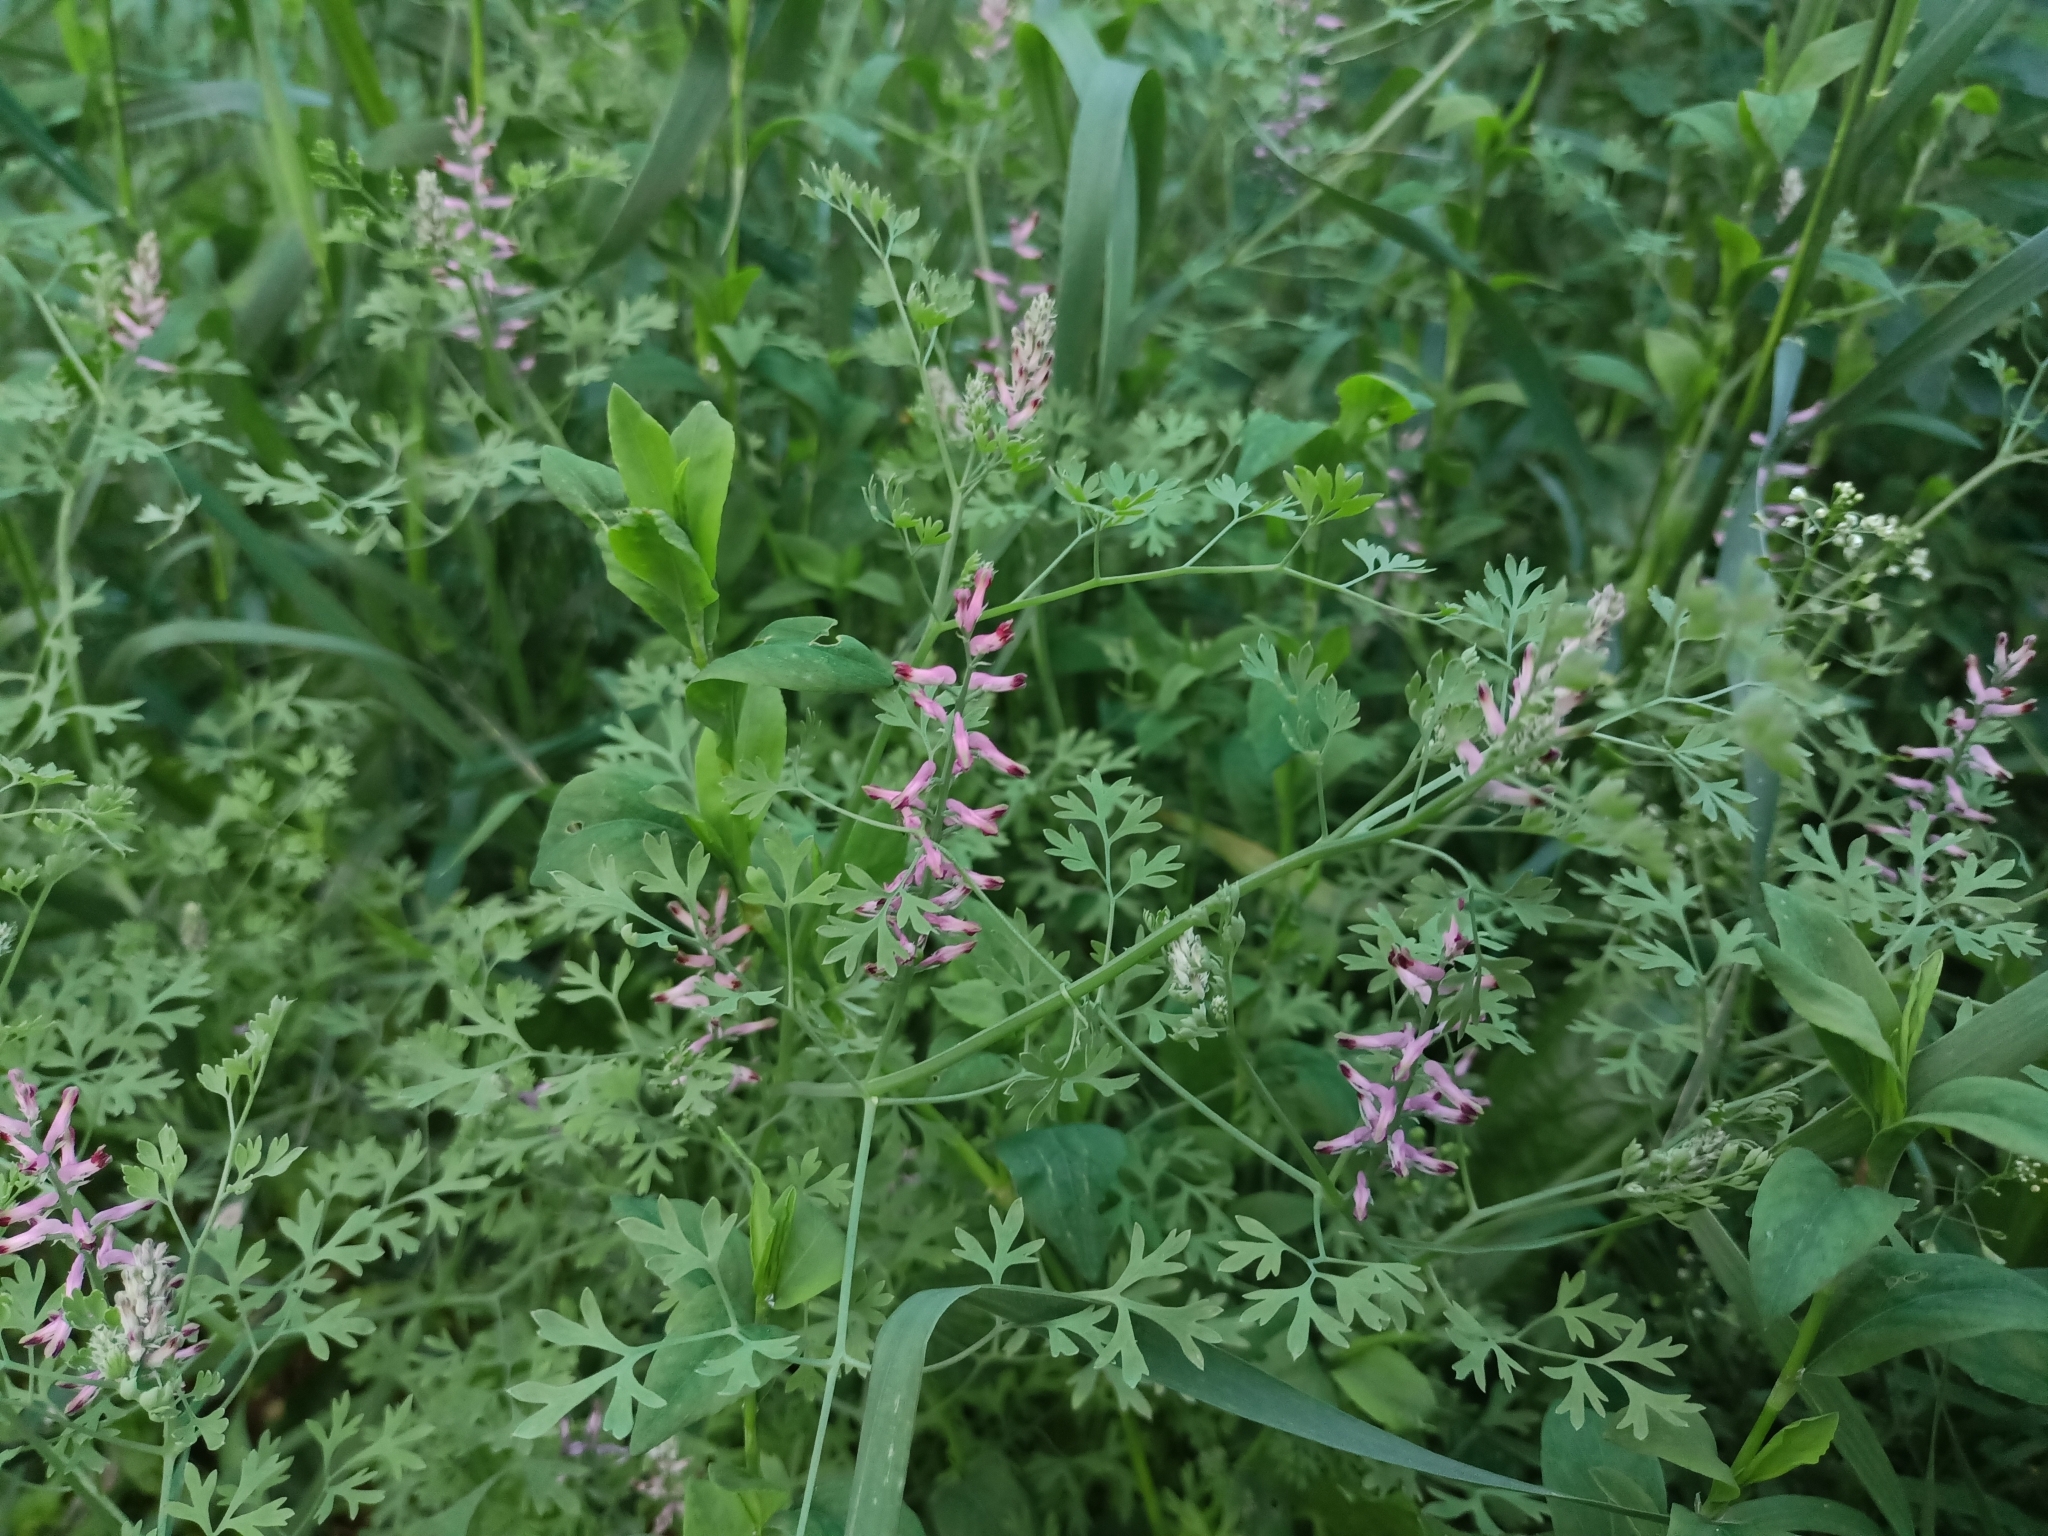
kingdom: Plantae
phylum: Tracheophyta
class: Magnoliopsida
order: Ranunculales
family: Papaveraceae
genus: Fumaria
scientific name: Fumaria officinalis
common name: Common fumitory
